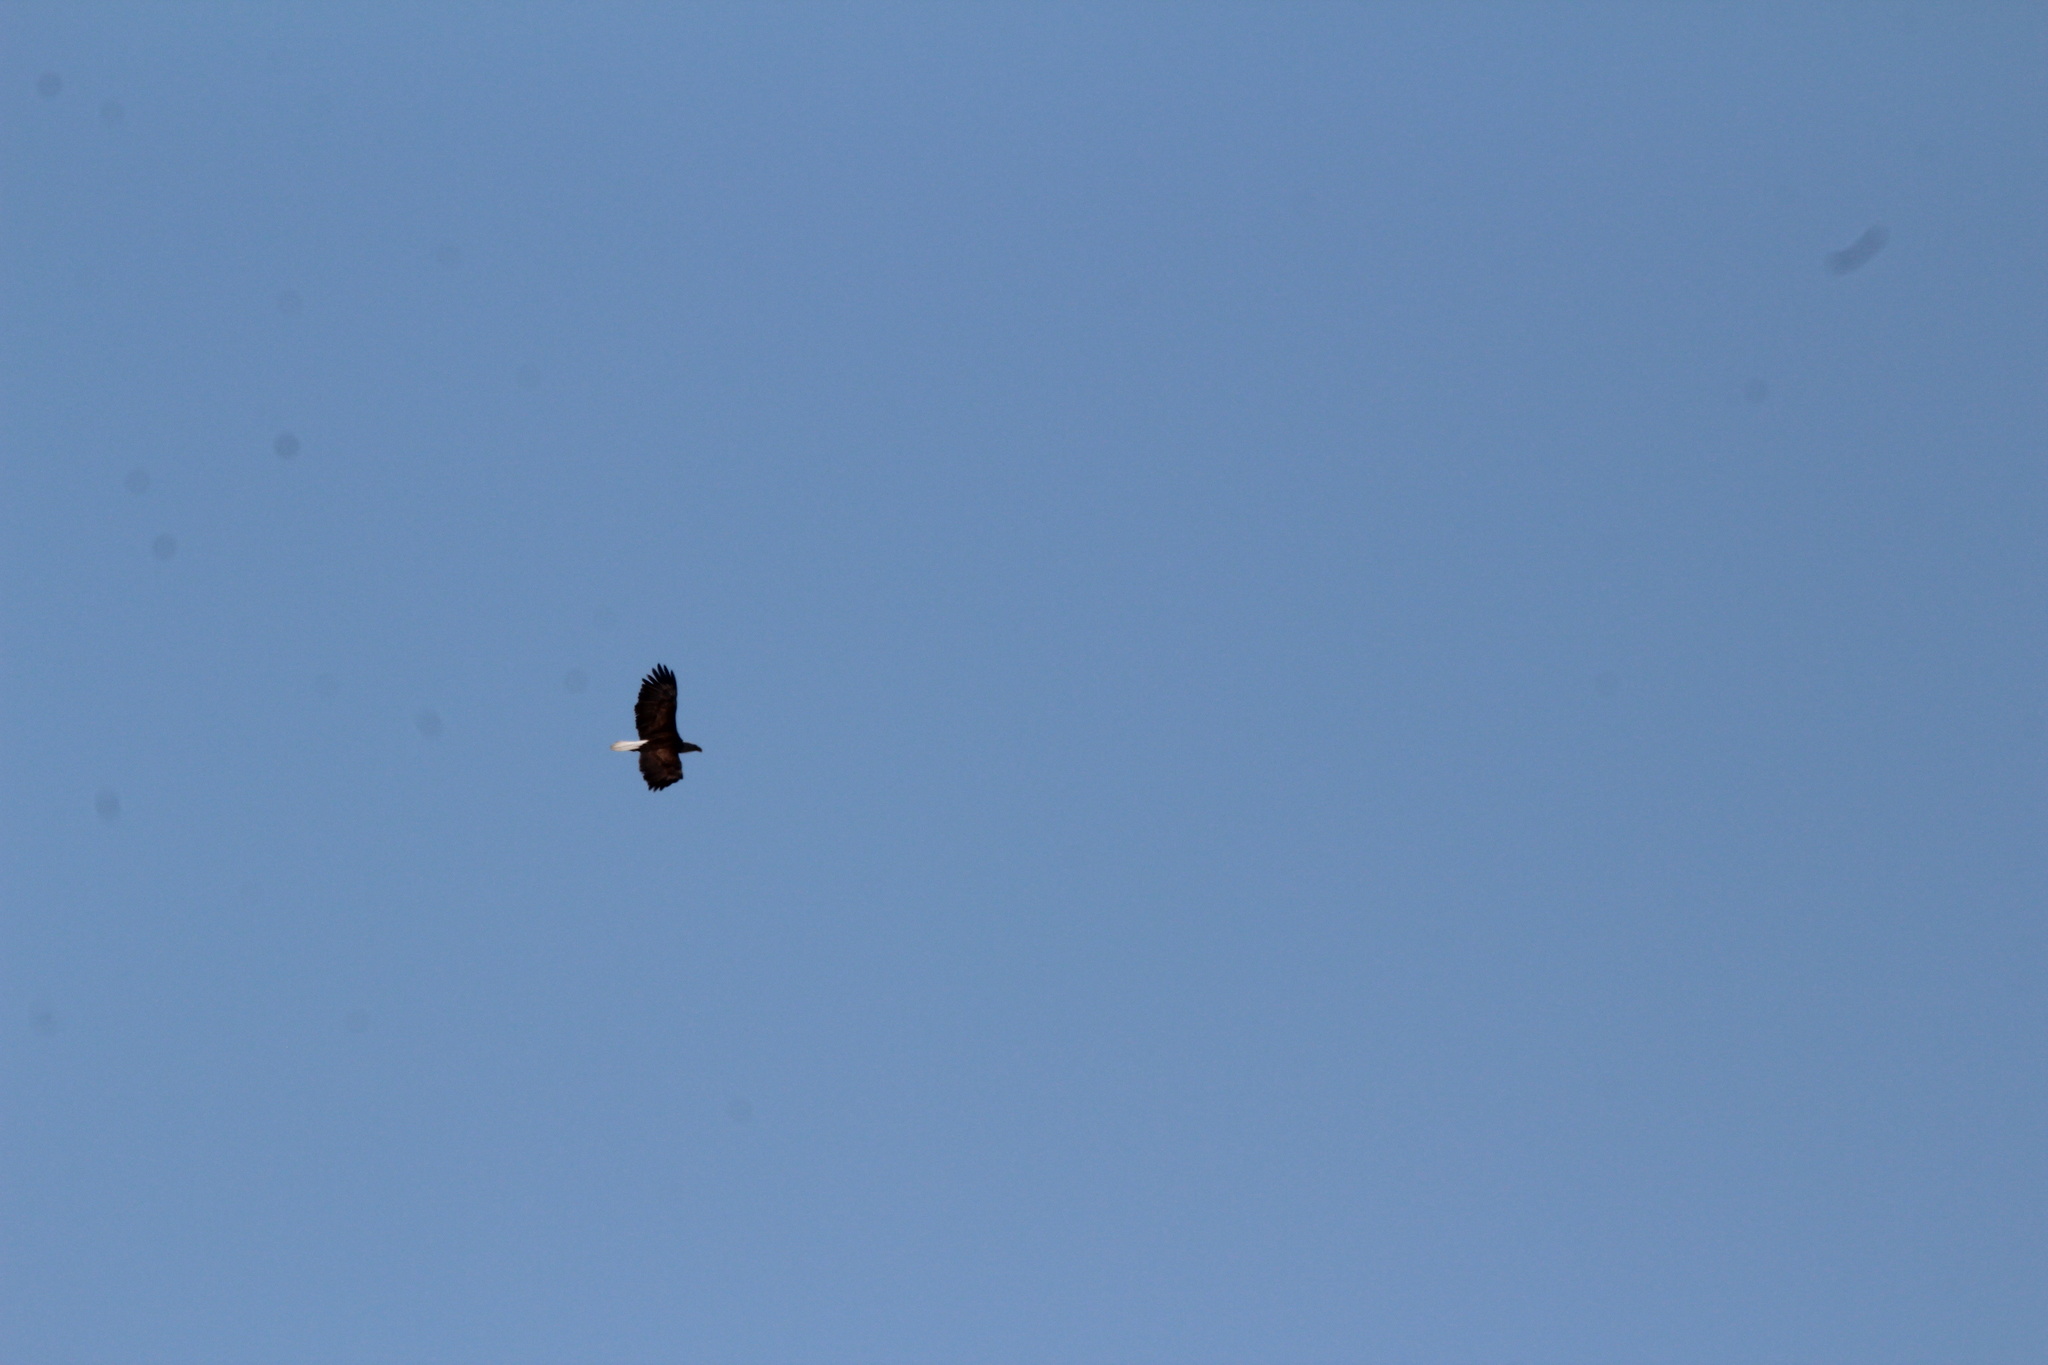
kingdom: Animalia
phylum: Chordata
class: Aves
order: Accipitriformes
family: Accipitridae
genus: Haliaeetus
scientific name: Haliaeetus leucocephalus
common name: Bald eagle
